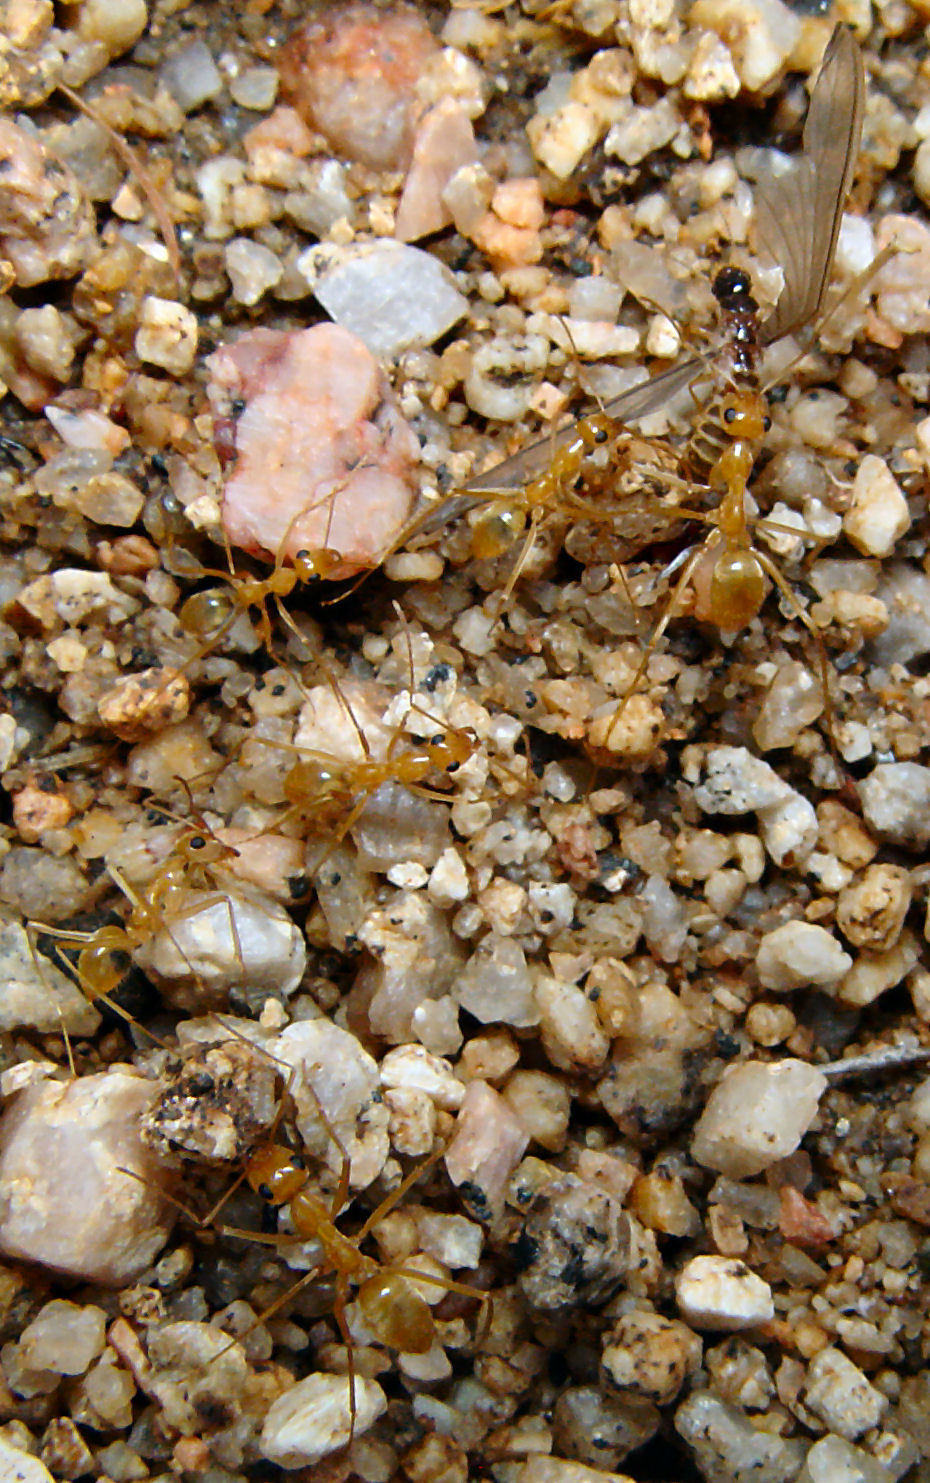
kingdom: Animalia
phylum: Arthropoda
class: Insecta
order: Hymenoptera
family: Formicidae
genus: Myrmecocystus
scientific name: Myrmecocystus mexicanus
